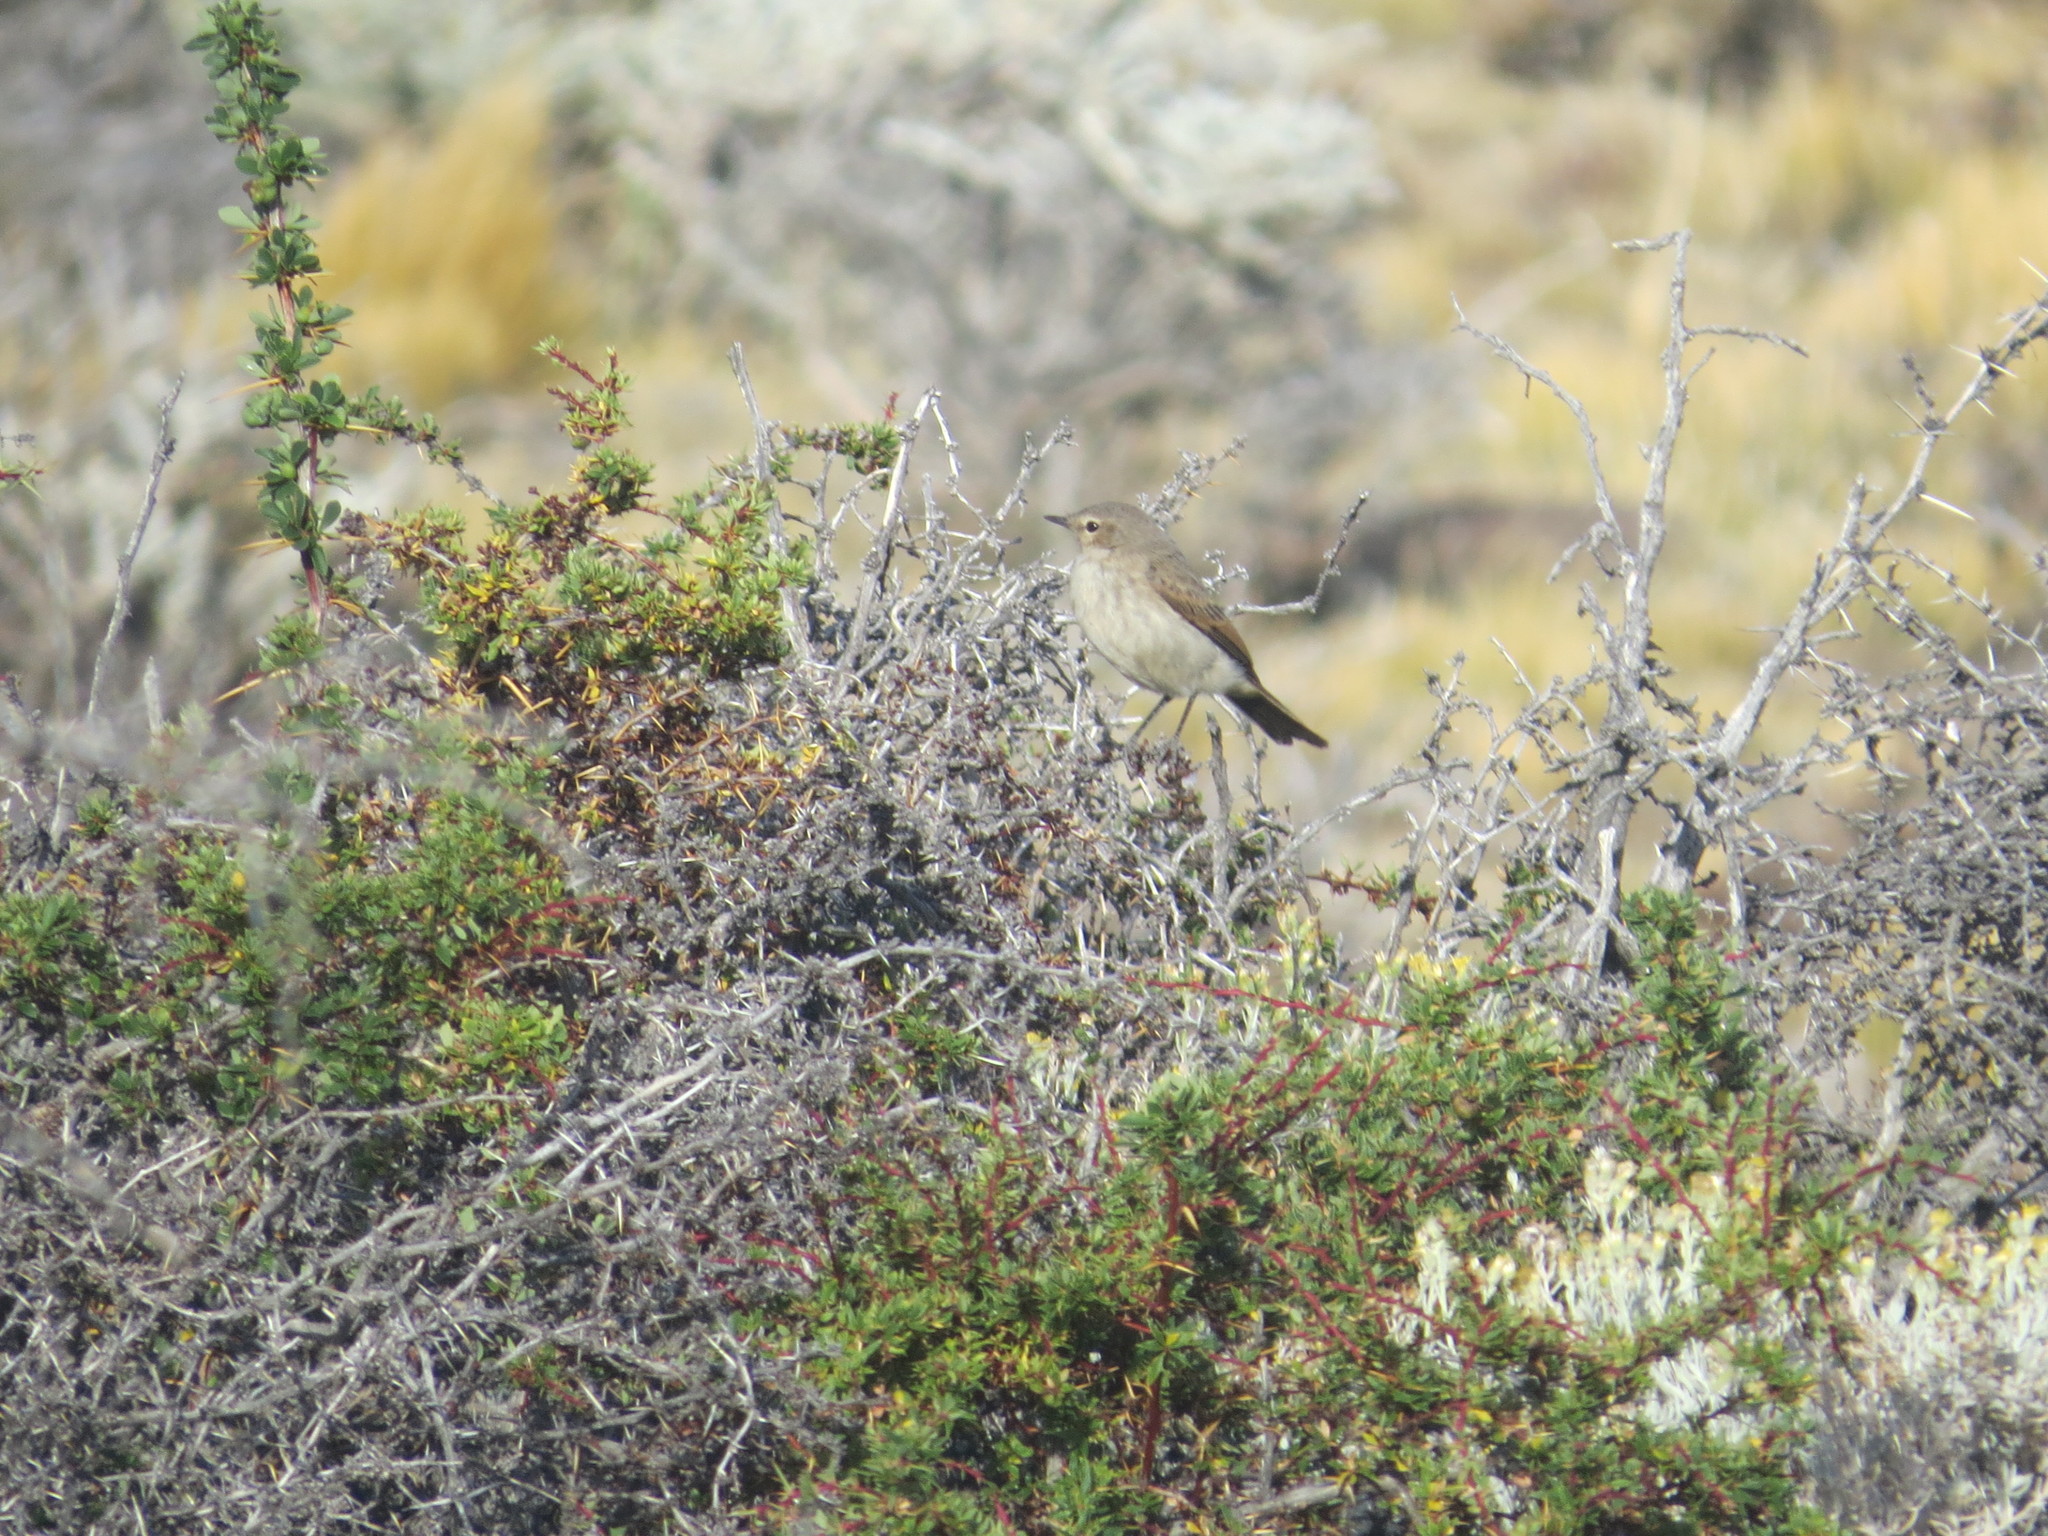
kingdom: Animalia
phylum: Chordata
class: Aves
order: Passeriformes
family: Tyrannidae
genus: Muscisaxicola
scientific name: Muscisaxicola maculirostris
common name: Spot-billed ground tyrant
